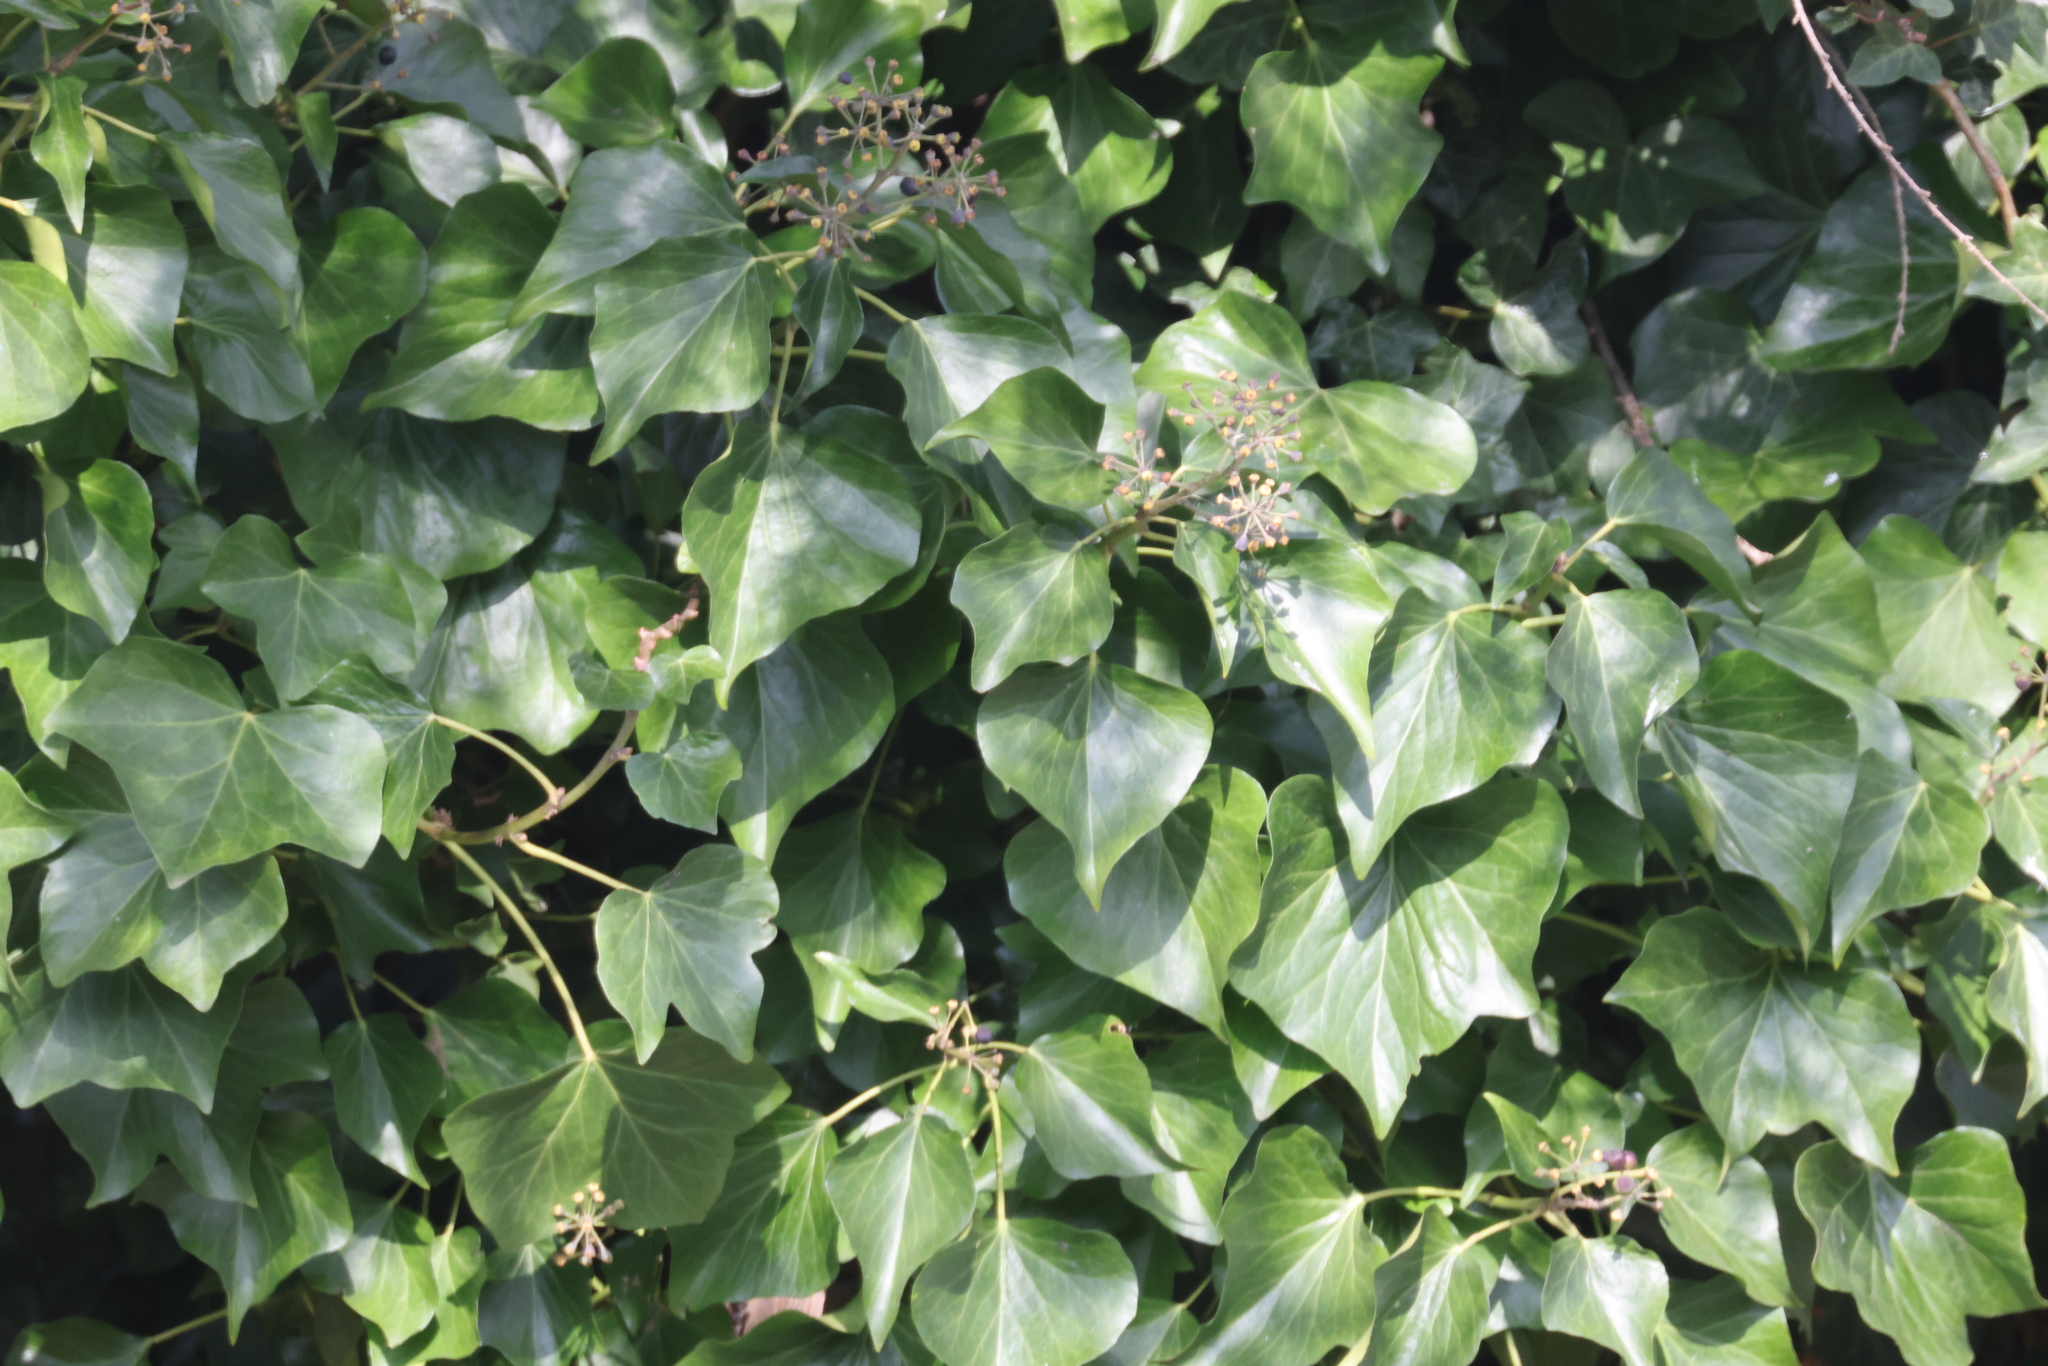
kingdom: Plantae
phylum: Tracheophyta
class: Magnoliopsida
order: Apiales
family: Araliaceae
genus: Hedera
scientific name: Hedera helix
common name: Ivy
